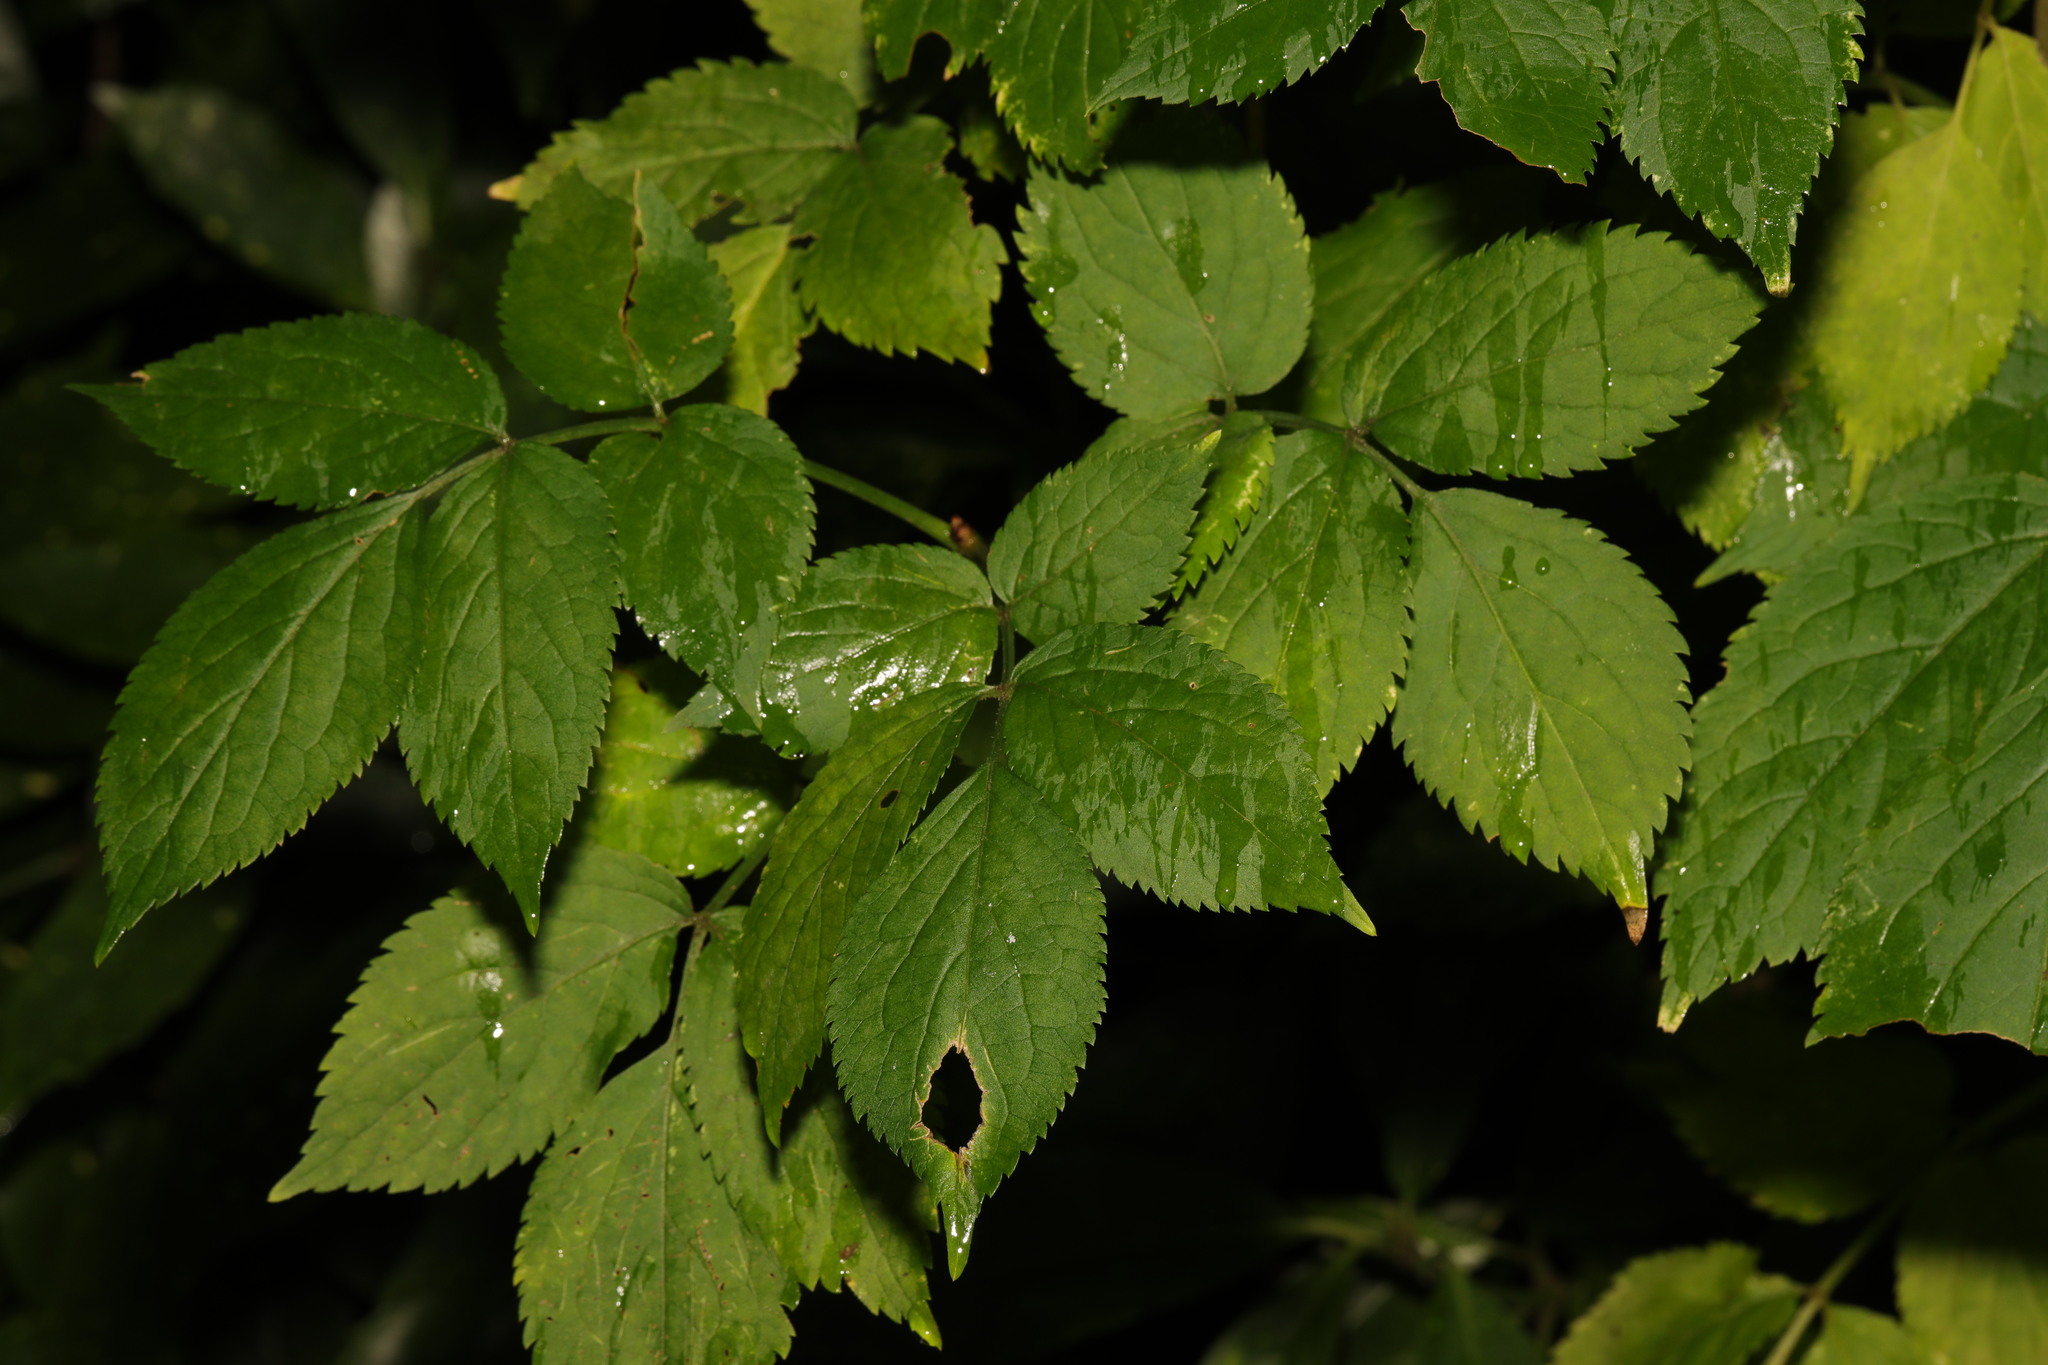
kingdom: Plantae
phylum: Tracheophyta
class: Magnoliopsida
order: Dipsacales
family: Viburnaceae
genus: Sambucus
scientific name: Sambucus nigra
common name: Elder
